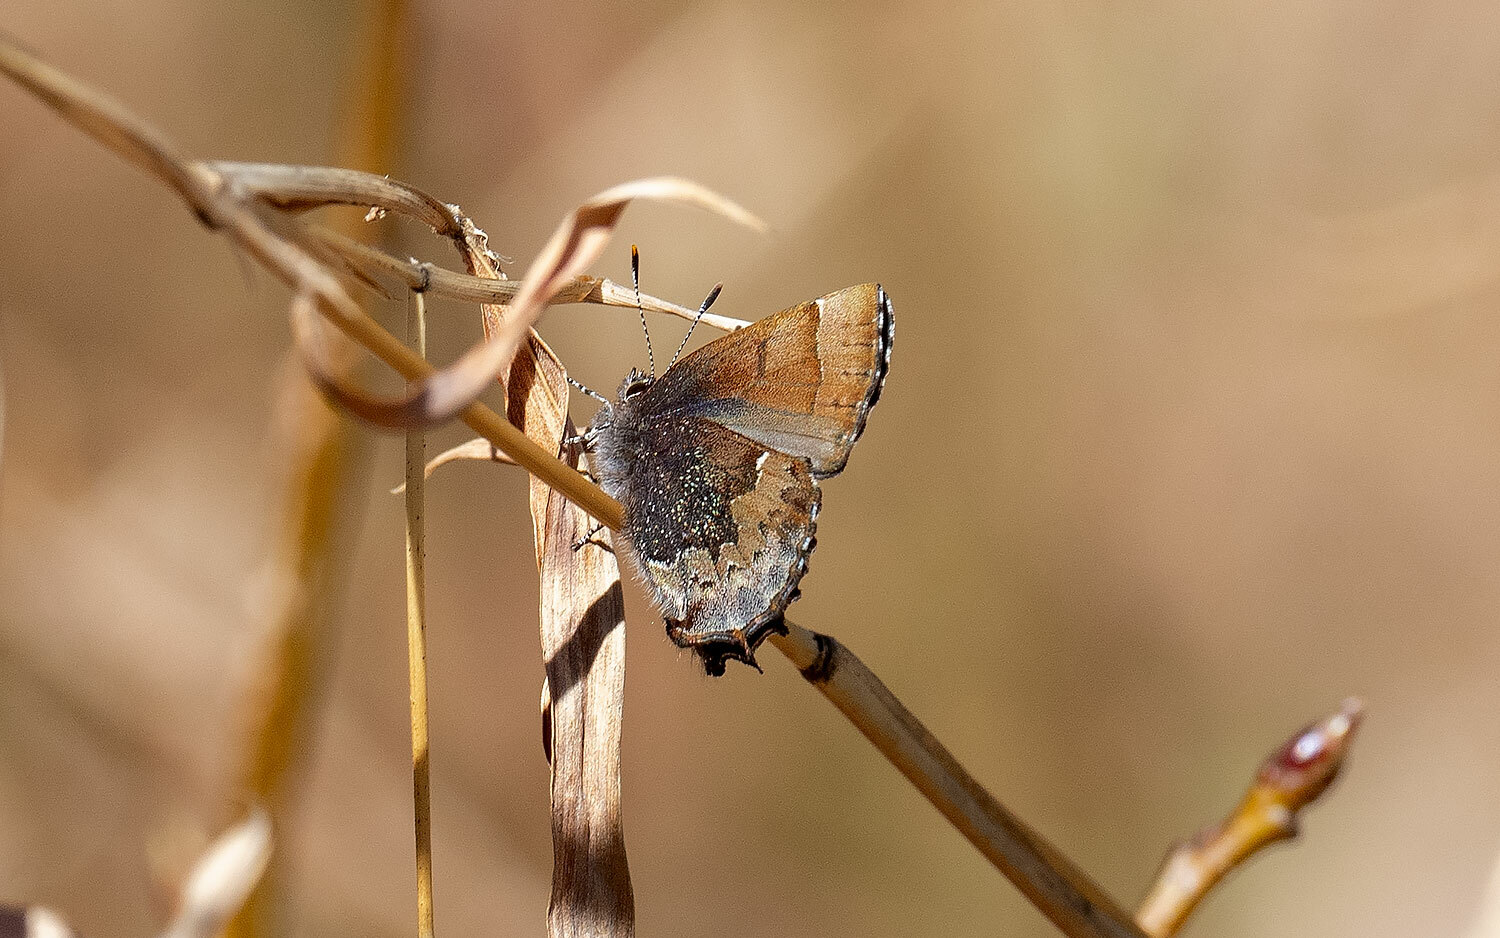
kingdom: Animalia
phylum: Arthropoda
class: Insecta
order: Lepidoptera
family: Lycaenidae
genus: Incisalia
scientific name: Incisalia henrici
